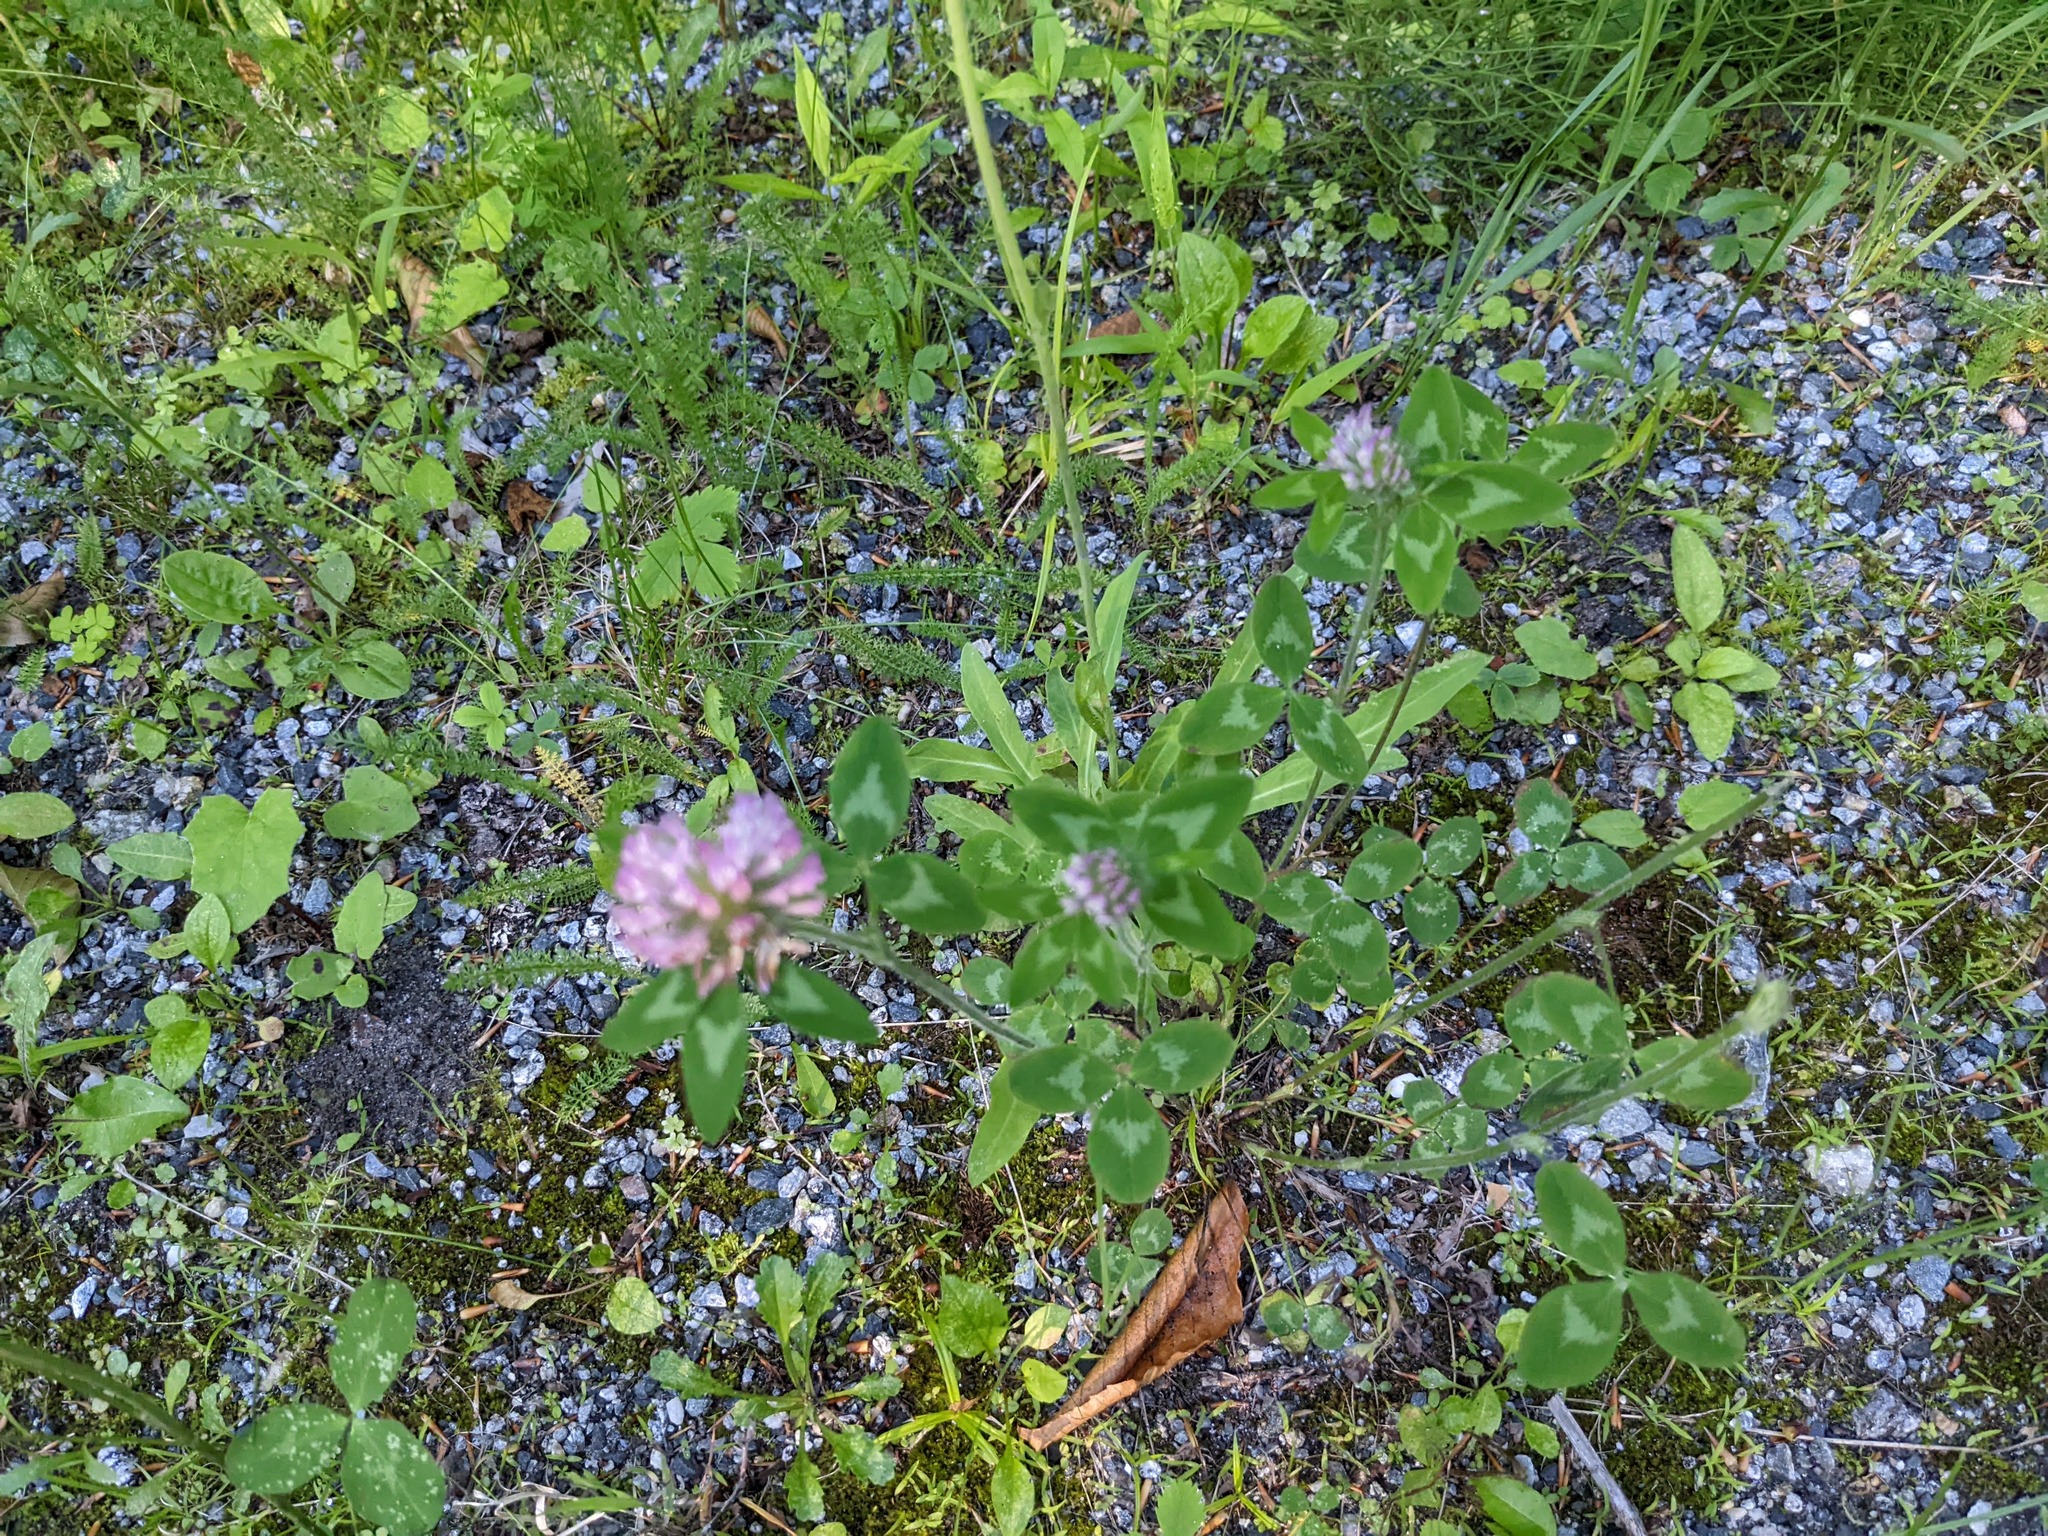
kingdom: Plantae
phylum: Tracheophyta
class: Magnoliopsida
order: Fabales
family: Fabaceae
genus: Trifolium
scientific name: Trifolium pratense
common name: Red clover
